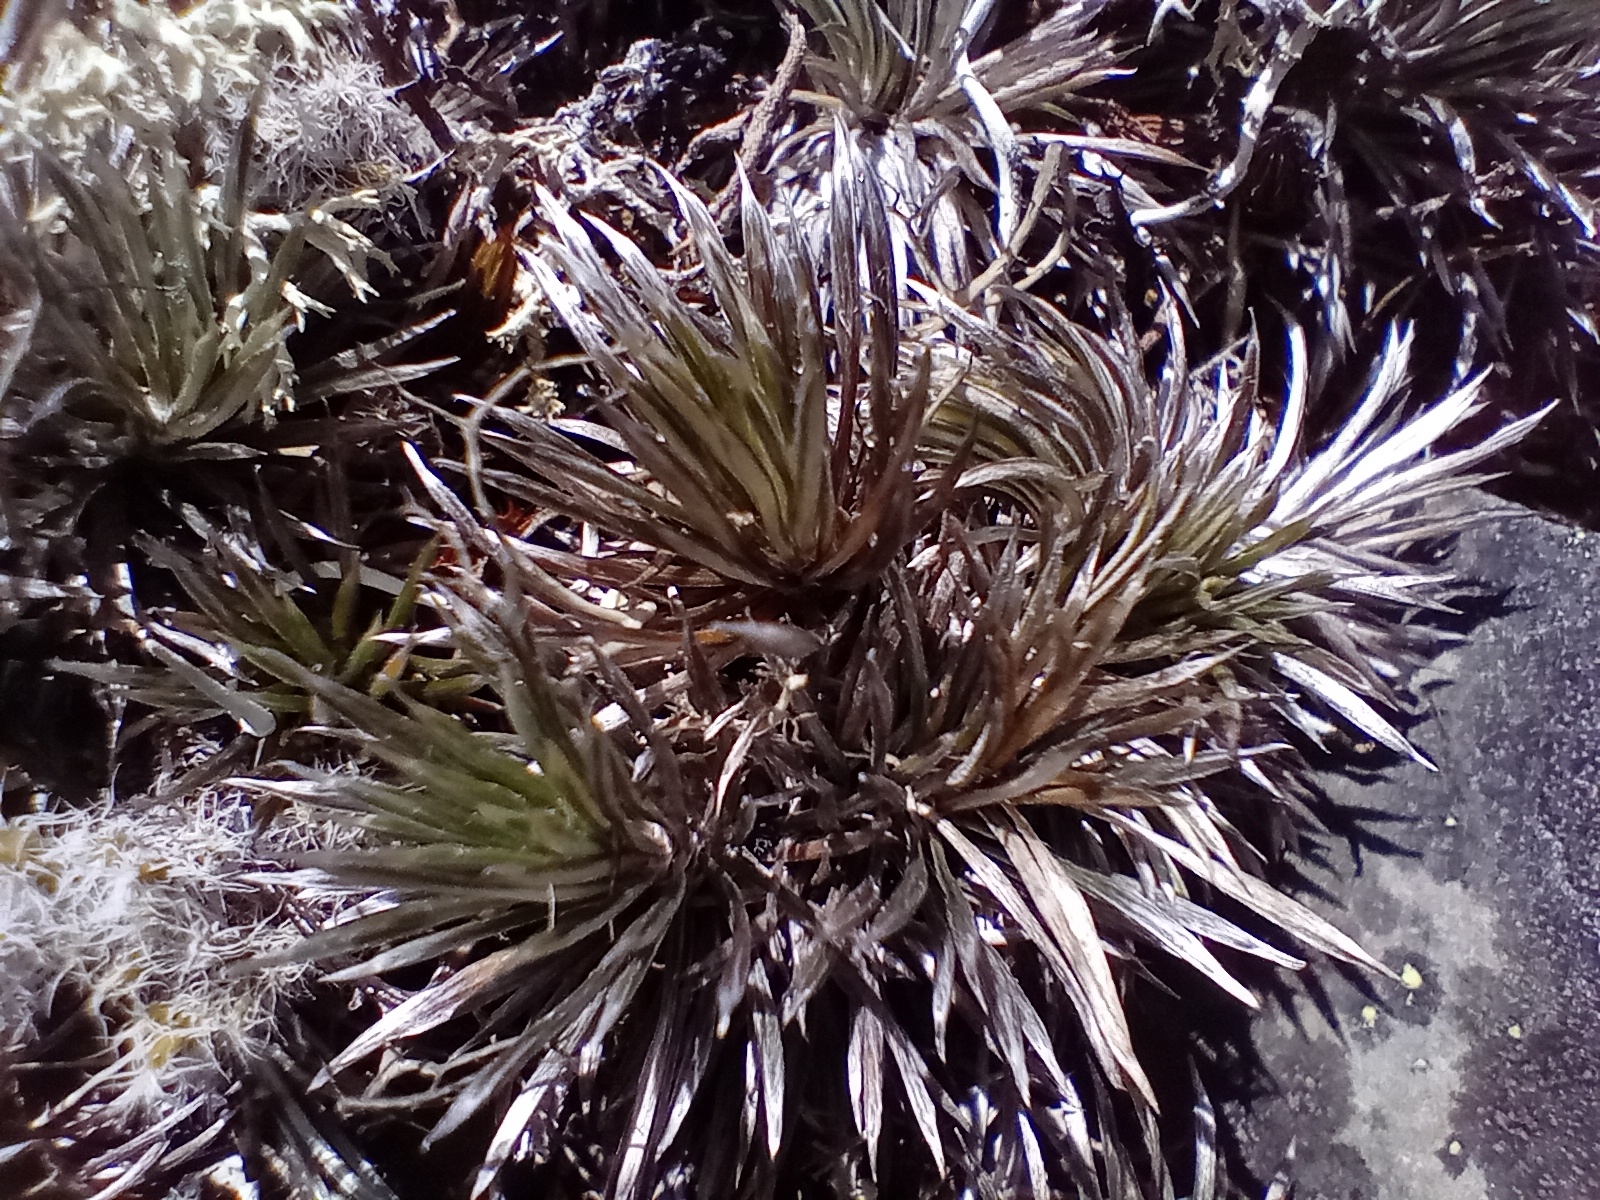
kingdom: Plantae
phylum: Tracheophyta
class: Magnoliopsida
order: Asterales
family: Asteraceae
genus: Celmisia
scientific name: Celmisia laricifolia
